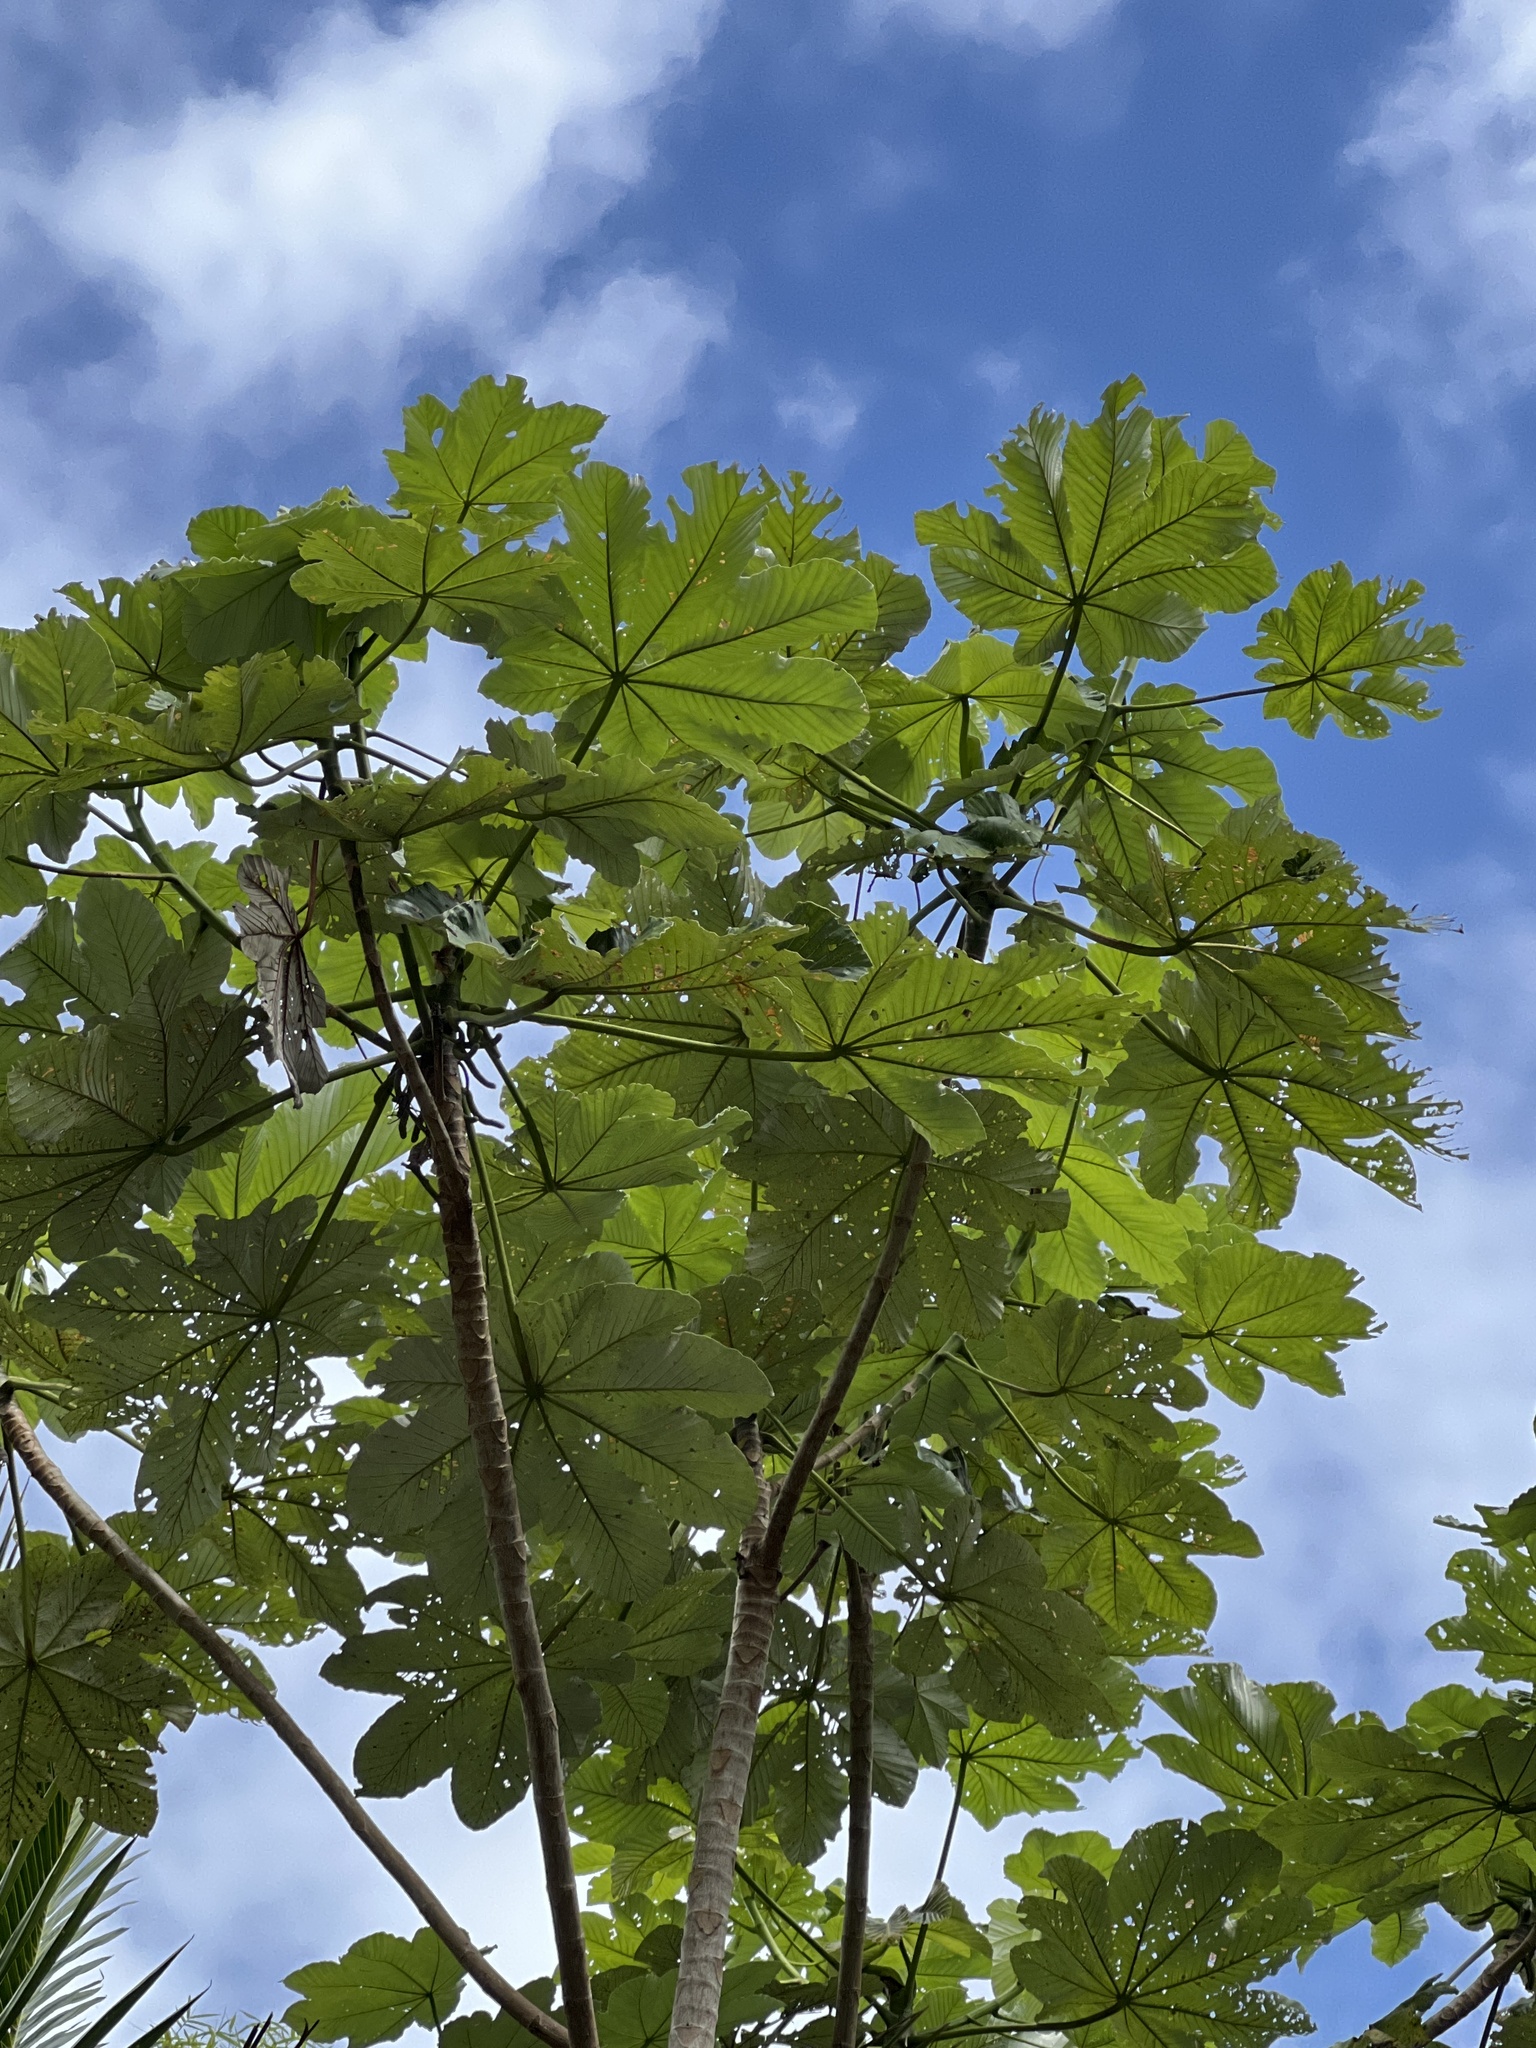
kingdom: Plantae
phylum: Tracheophyta
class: Magnoliopsida
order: Rosales
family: Urticaceae
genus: Cecropia
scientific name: Cecropia schreberiana
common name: Trumpet tree
